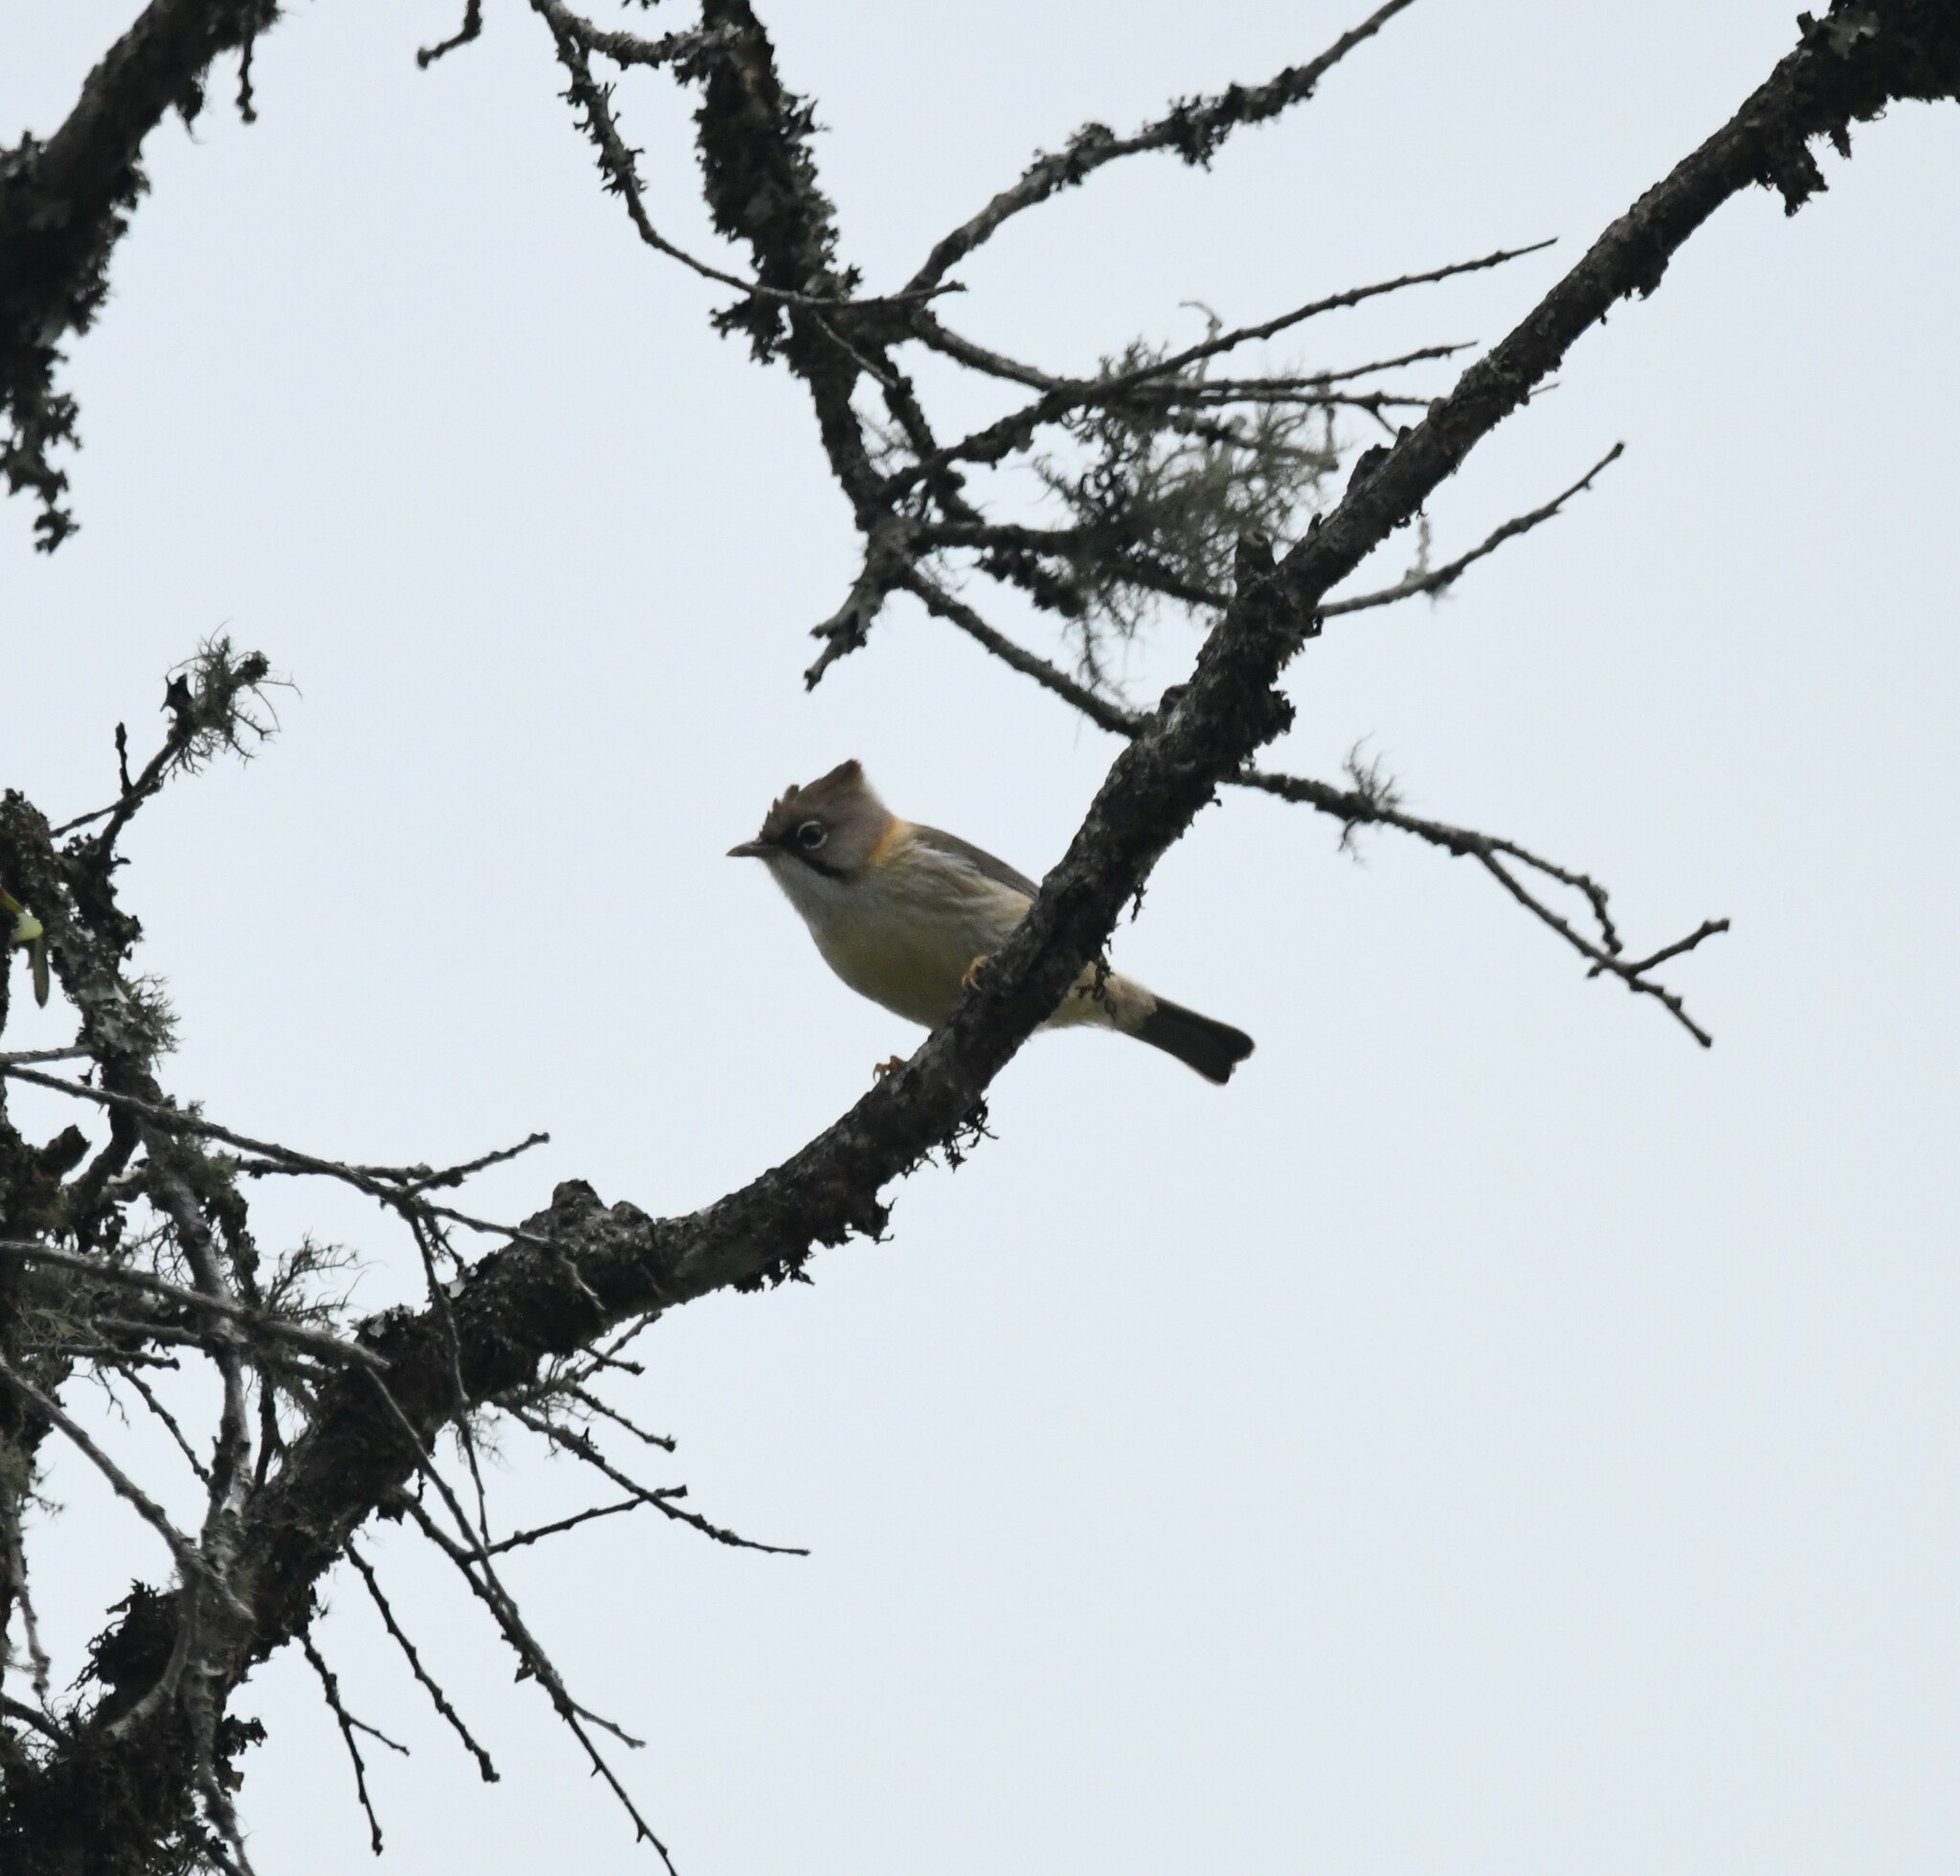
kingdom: Animalia
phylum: Chordata
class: Aves
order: Passeriformes
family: Zosteropidae
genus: Yuhina
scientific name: Yuhina flavicollis
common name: Whiskered yuhina
